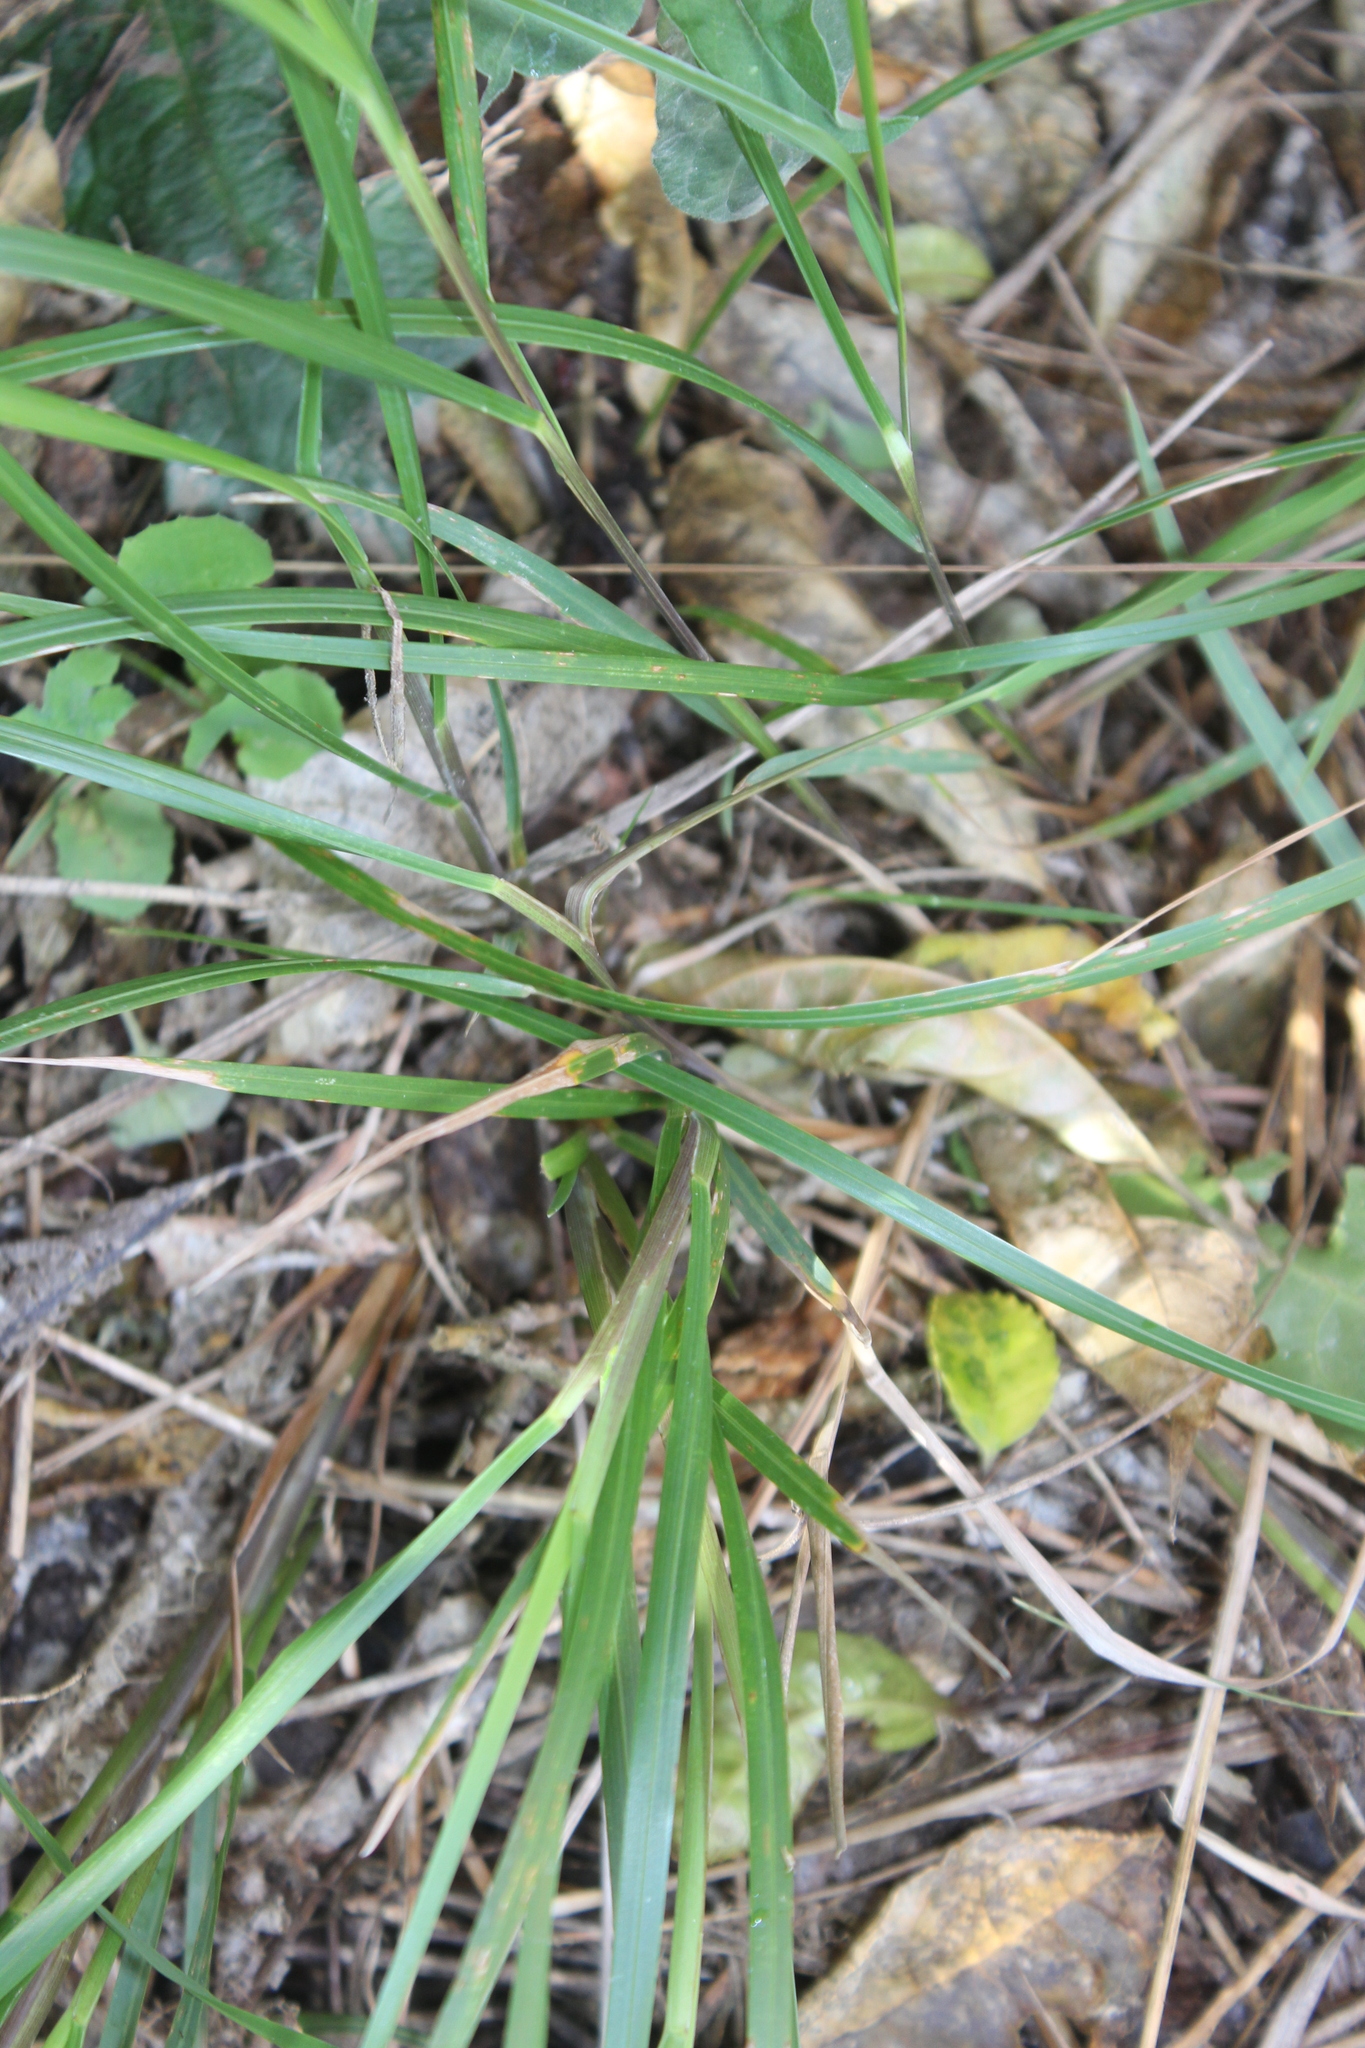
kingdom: Plantae
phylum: Tracheophyta
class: Liliopsida
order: Poales
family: Poaceae
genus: Poa
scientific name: Poa anceps
